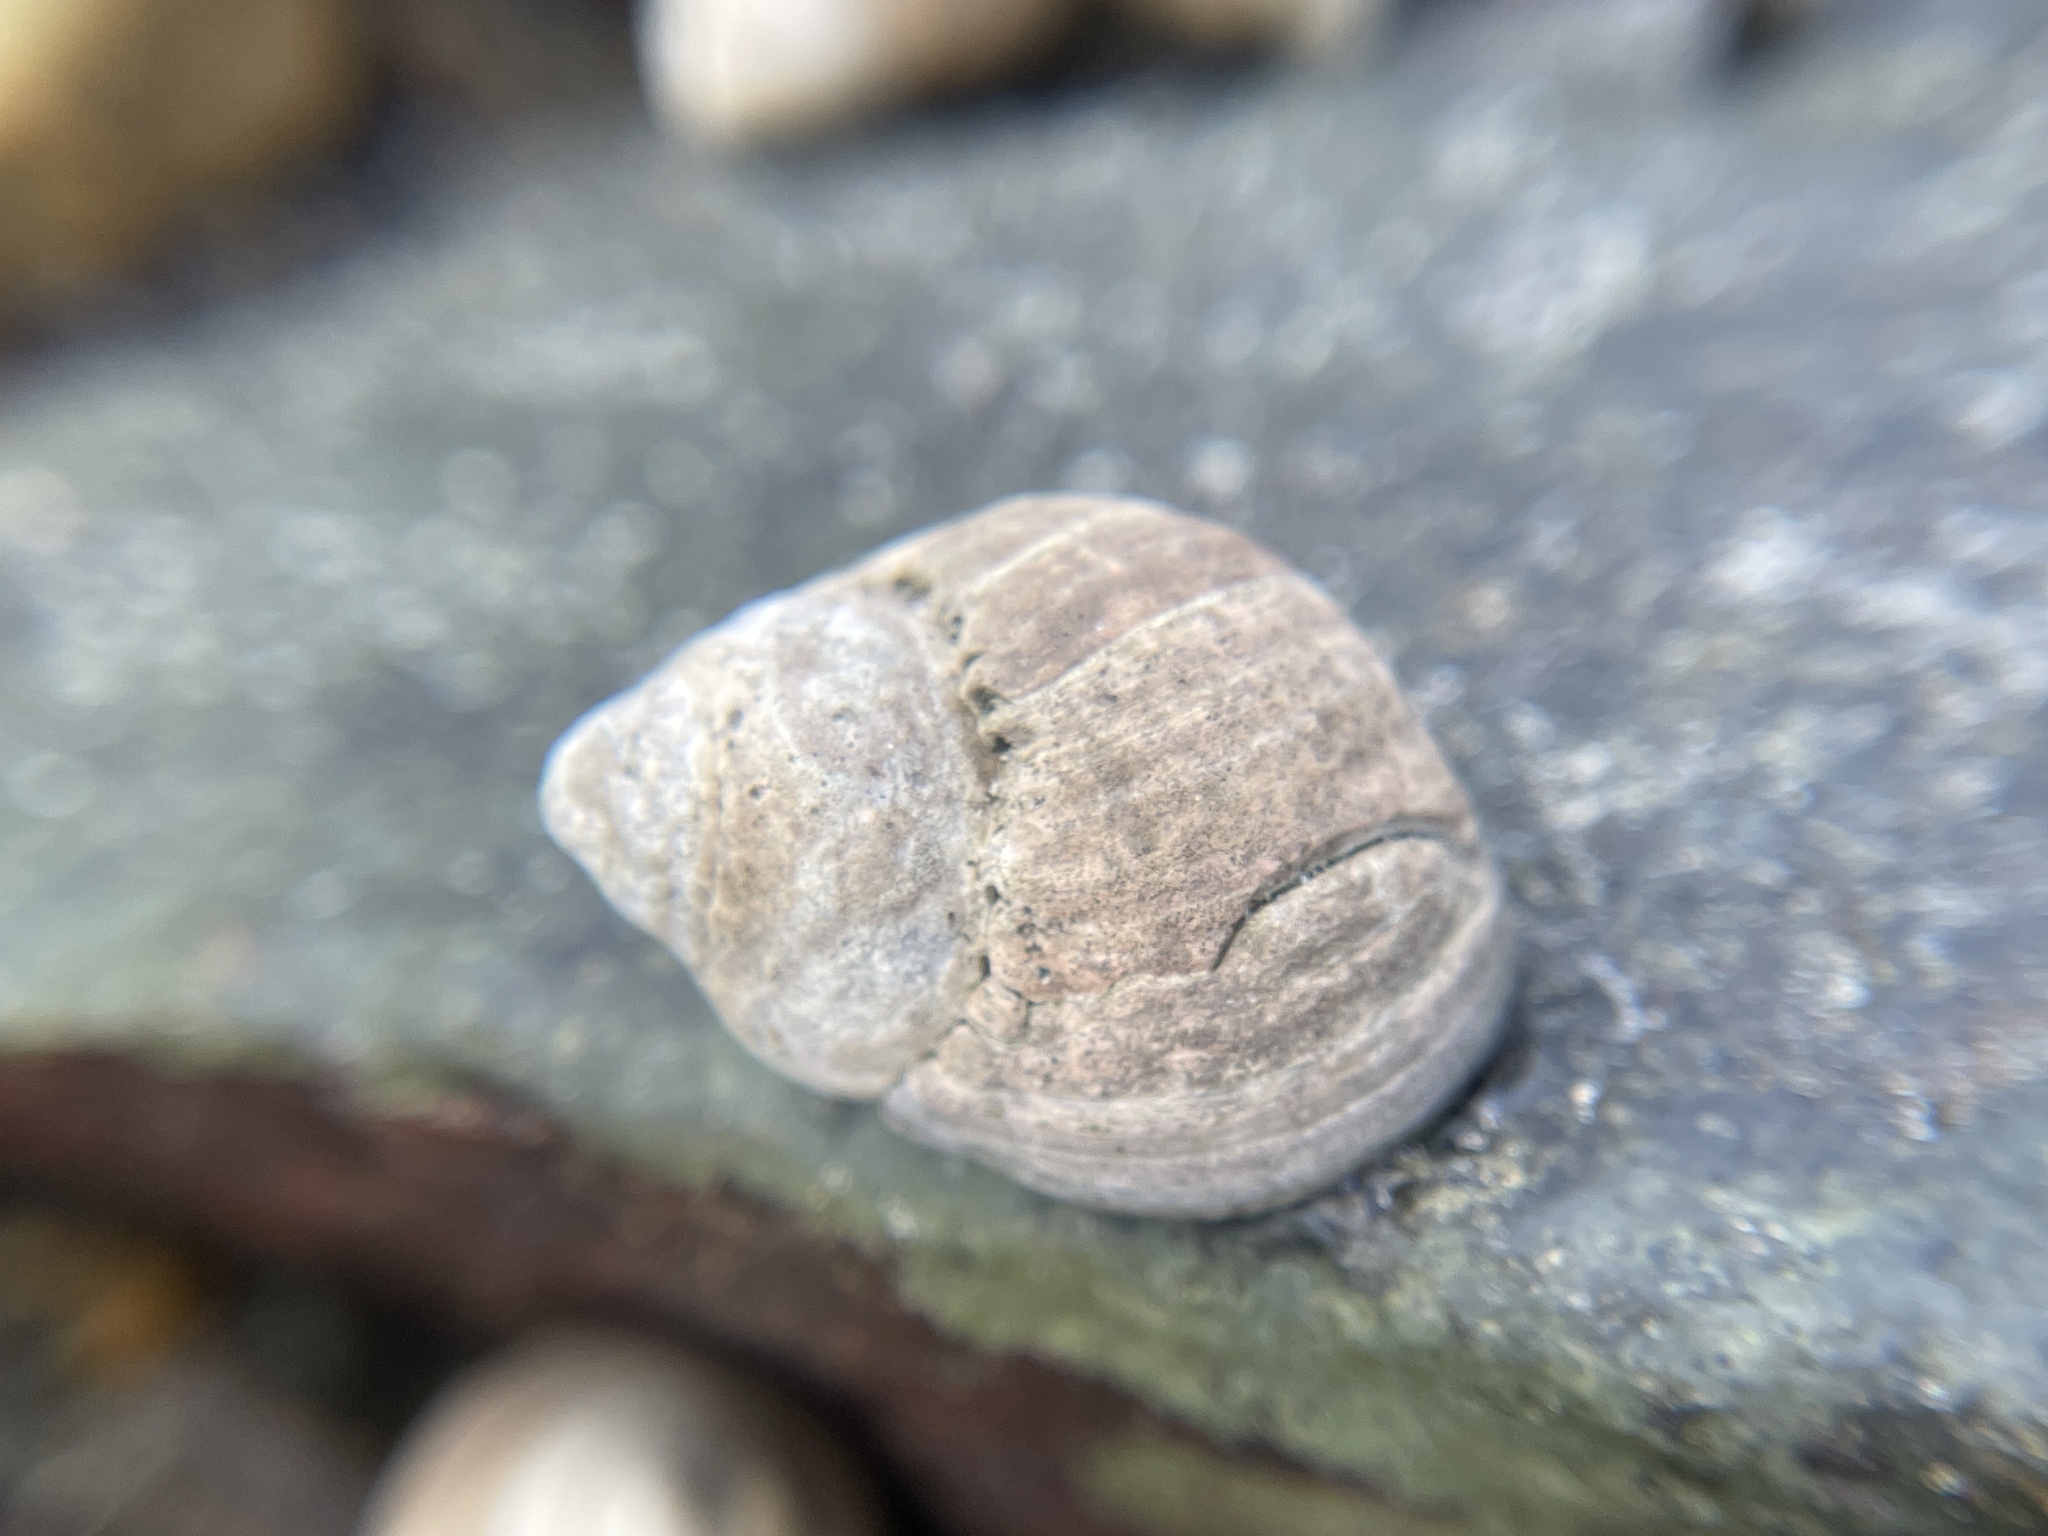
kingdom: Animalia
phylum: Mollusca
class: Gastropoda
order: Littorinimorpha
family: Littorinidae
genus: Littorina
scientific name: Littorina littorea
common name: Common periwinkle
